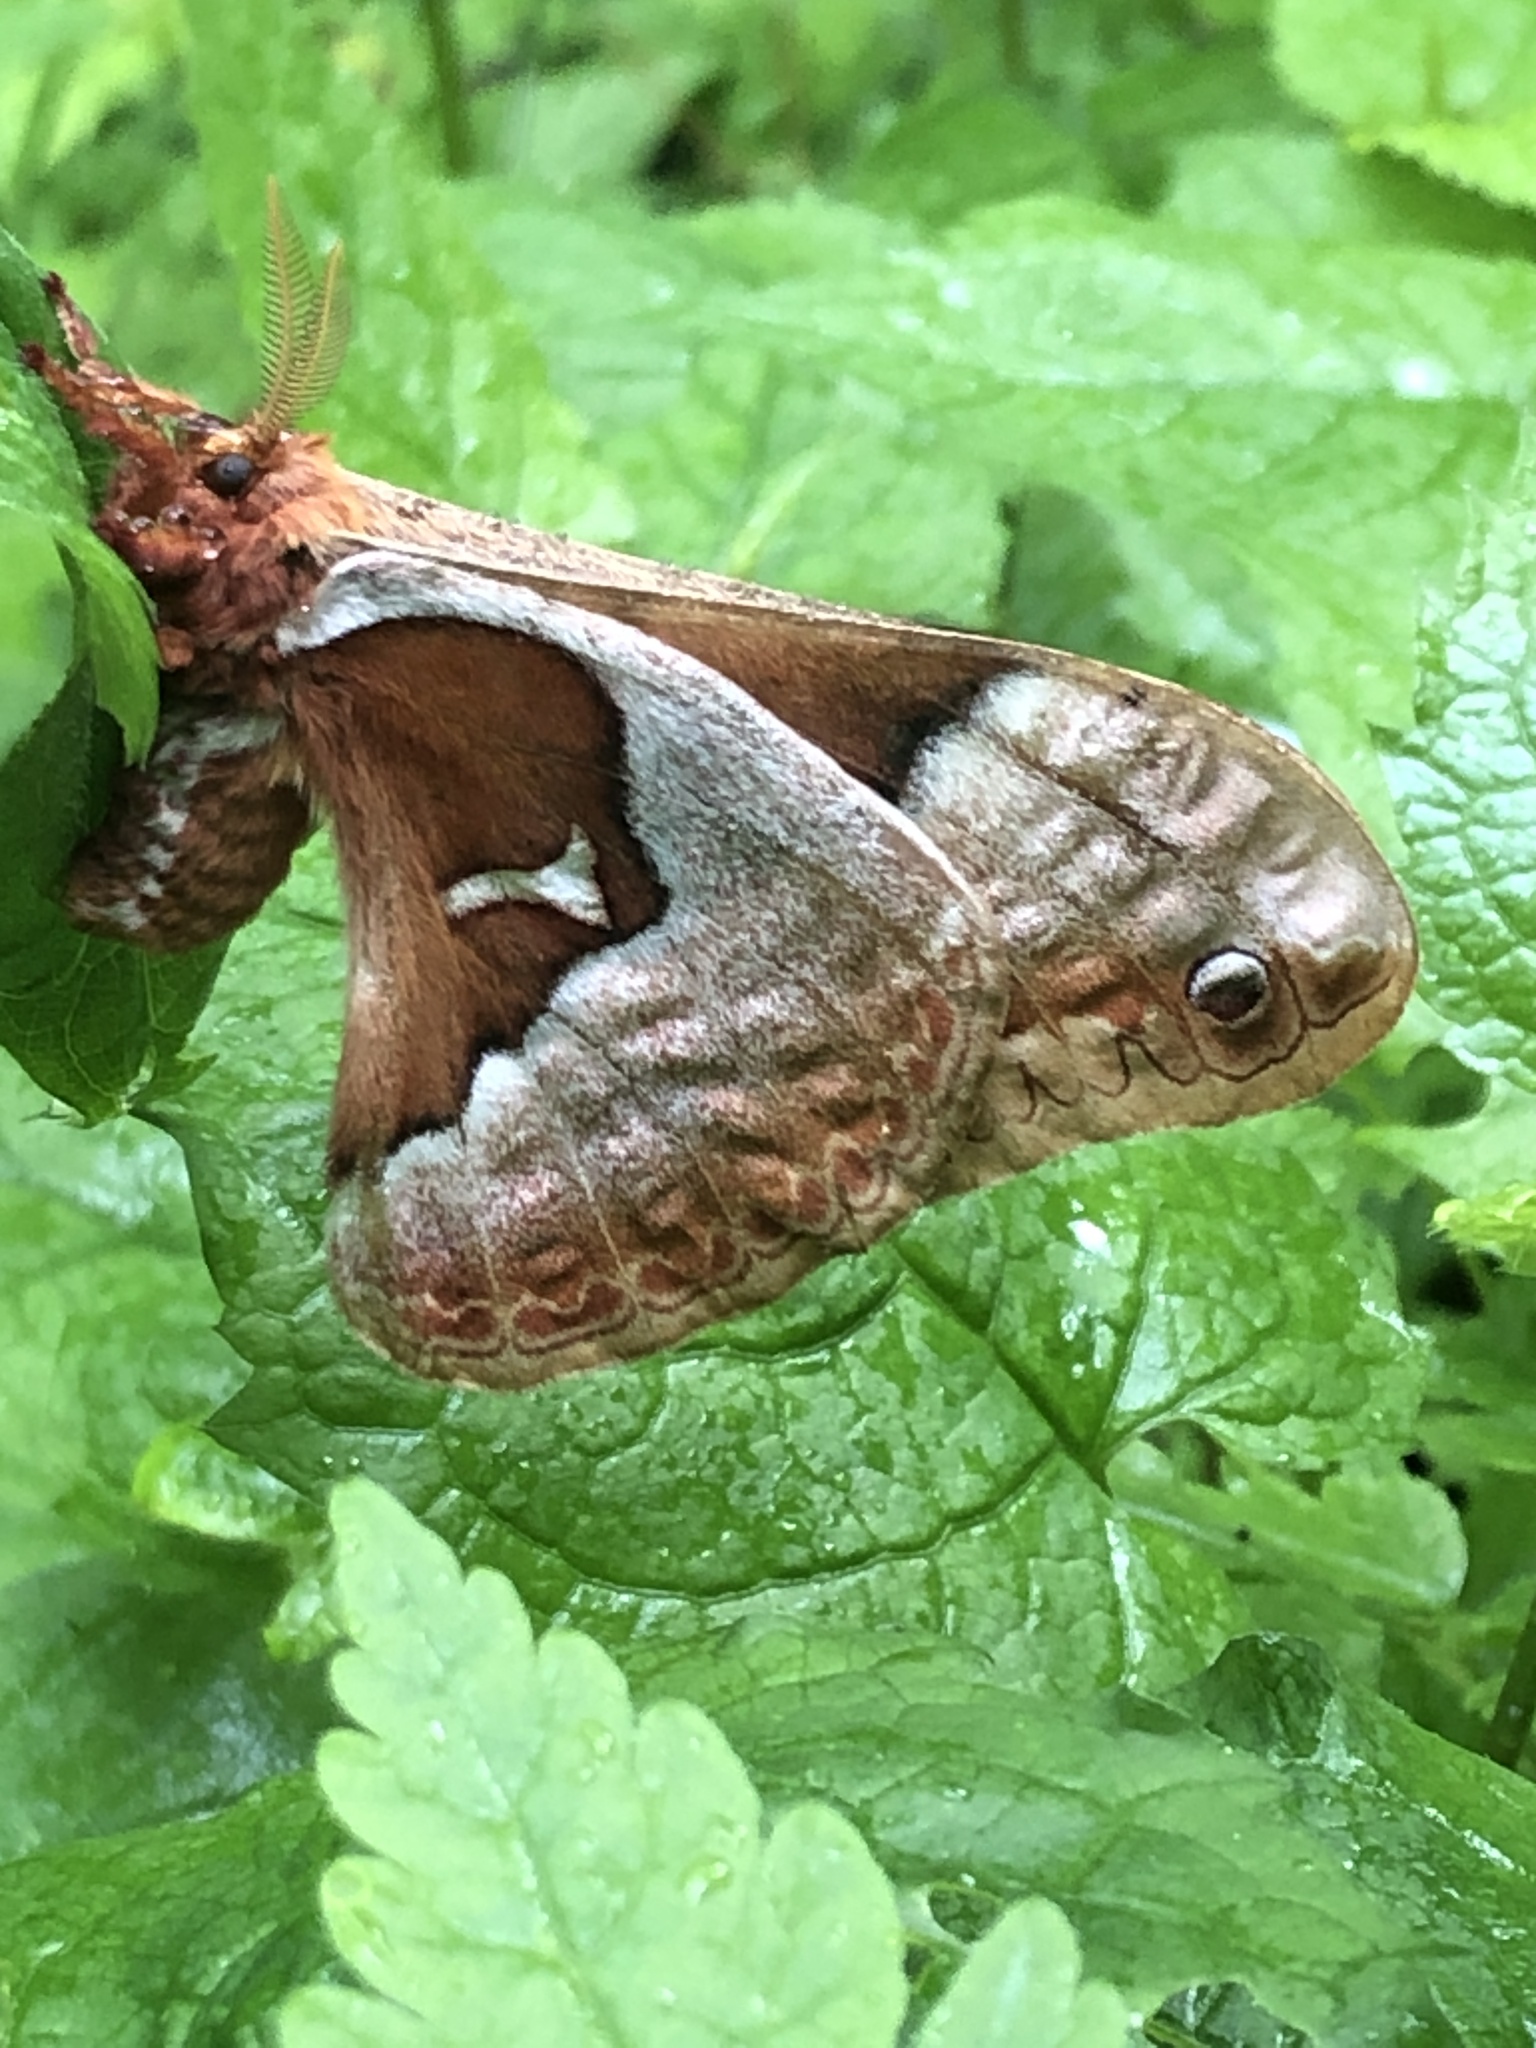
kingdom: Animalia
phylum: Arthropoda
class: Insecta
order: Lepidoptera
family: Saturniidae
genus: Callosamia
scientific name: Callosamia angulifera
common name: Tulip tree silkmoth
